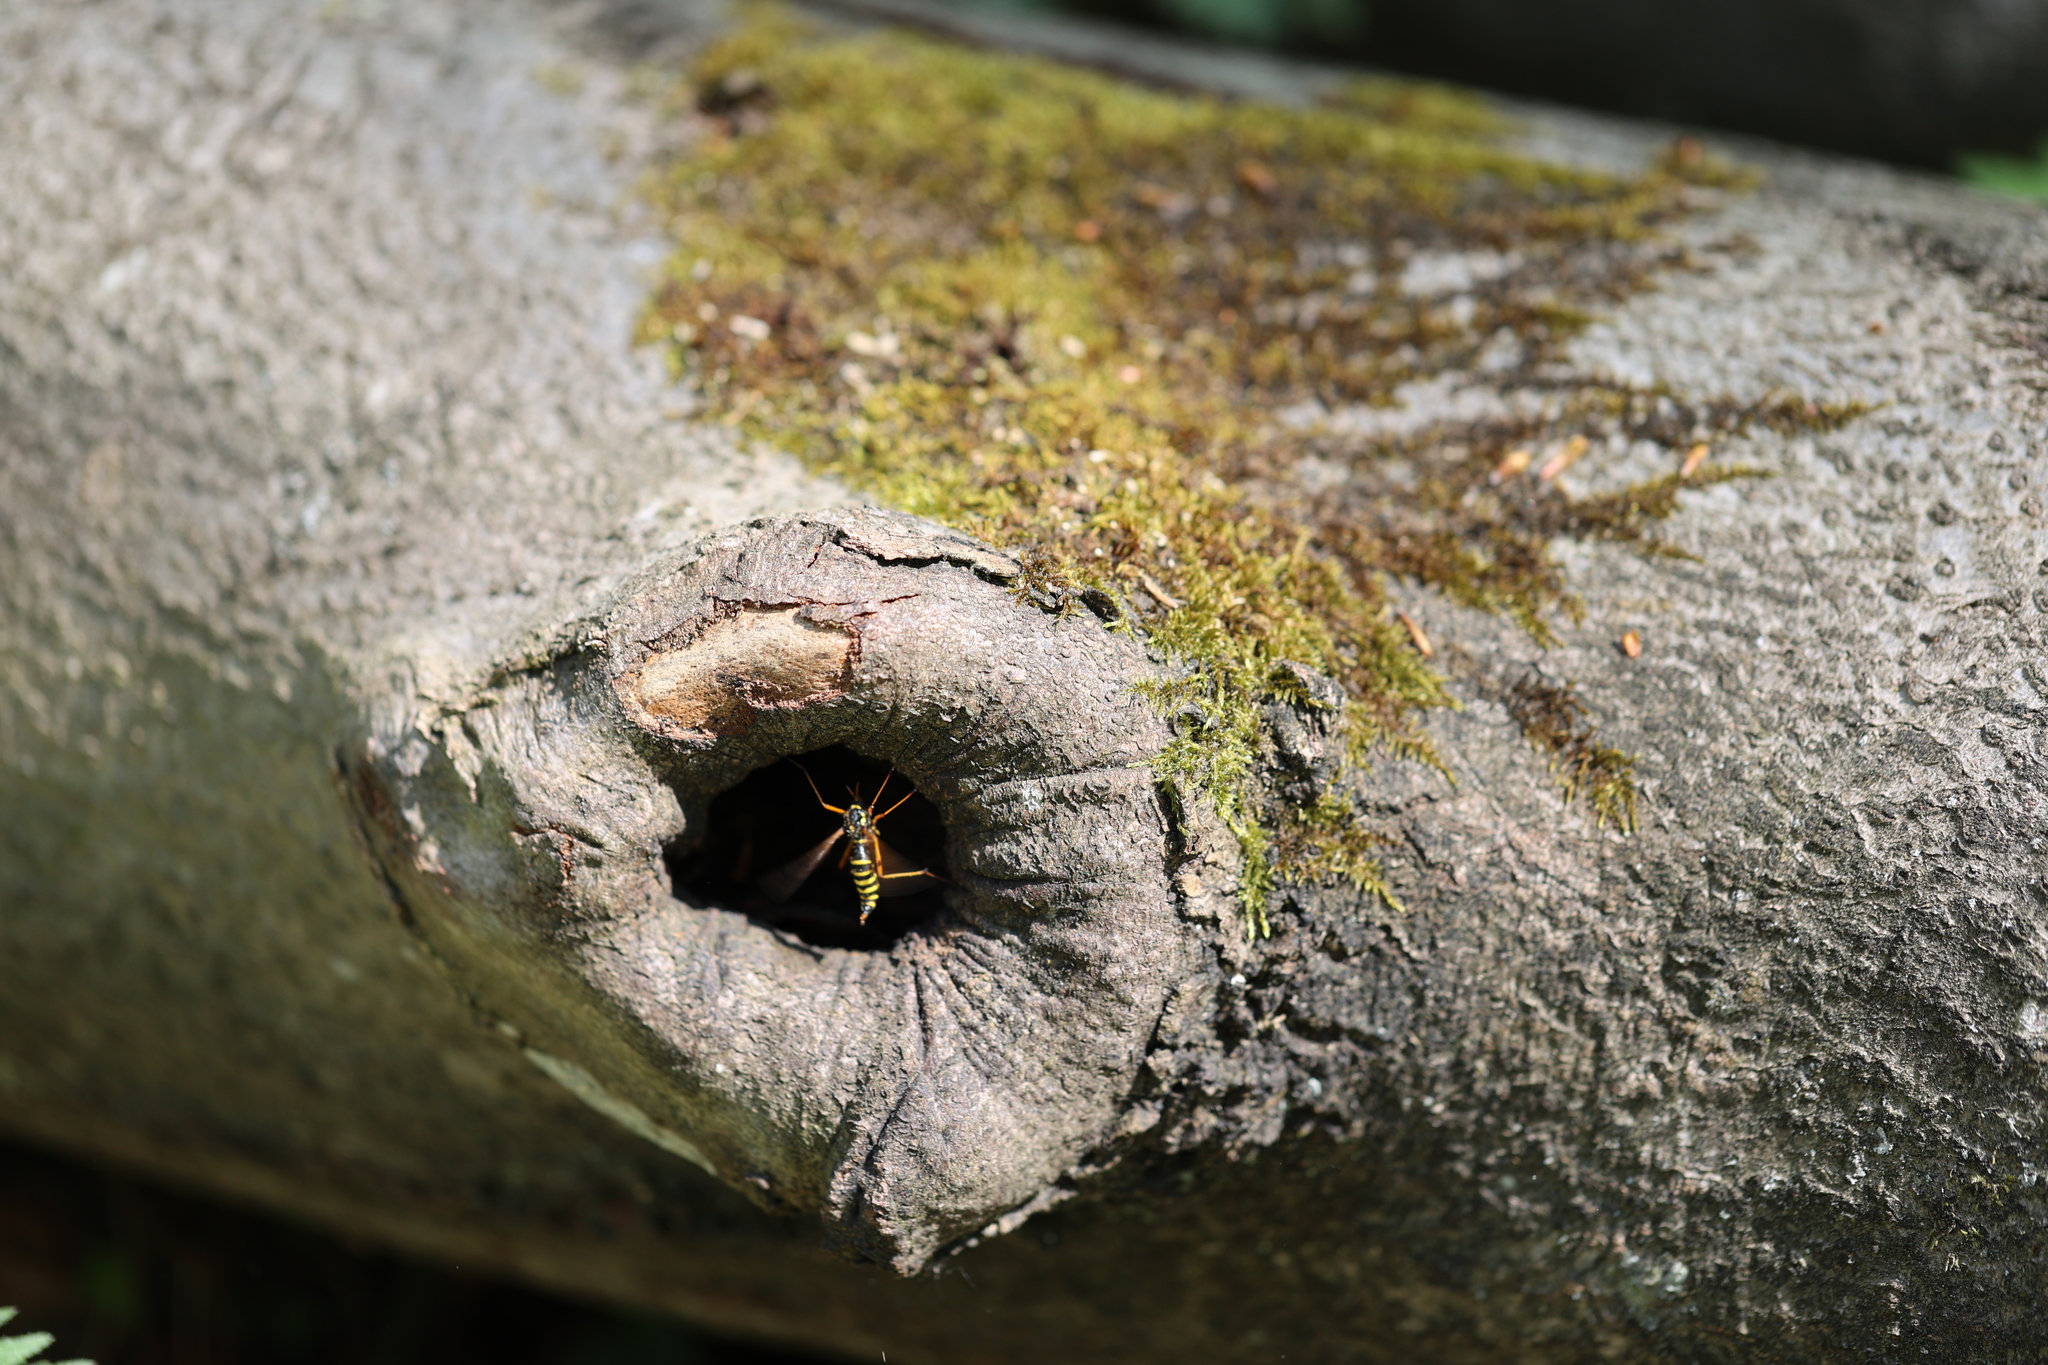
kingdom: Animalia
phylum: Arthropoda
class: Insecta
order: Diptera
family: Tipulidae
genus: Ctenophora
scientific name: Ctenophora flaveolata
